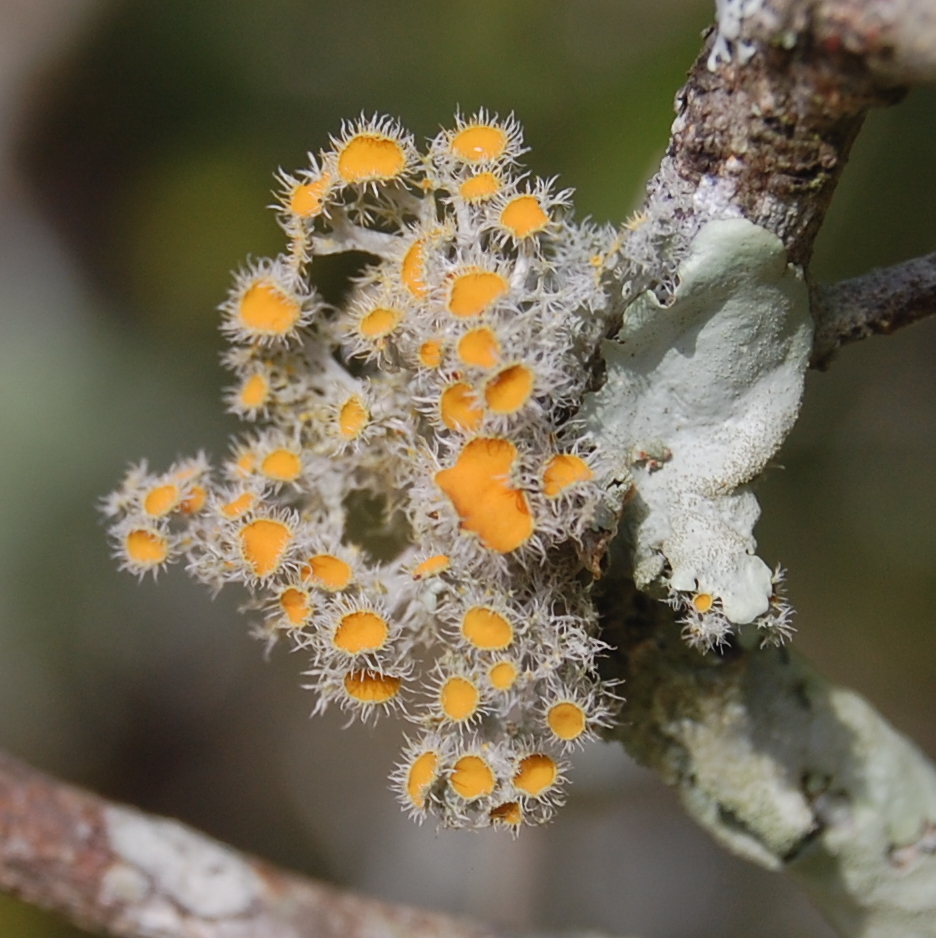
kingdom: Fungi
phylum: Ascomycota
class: Lecanoromycetes
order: Teloschistales
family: Teloschistaceae
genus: Niorma
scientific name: Niorma chrysophthalma
